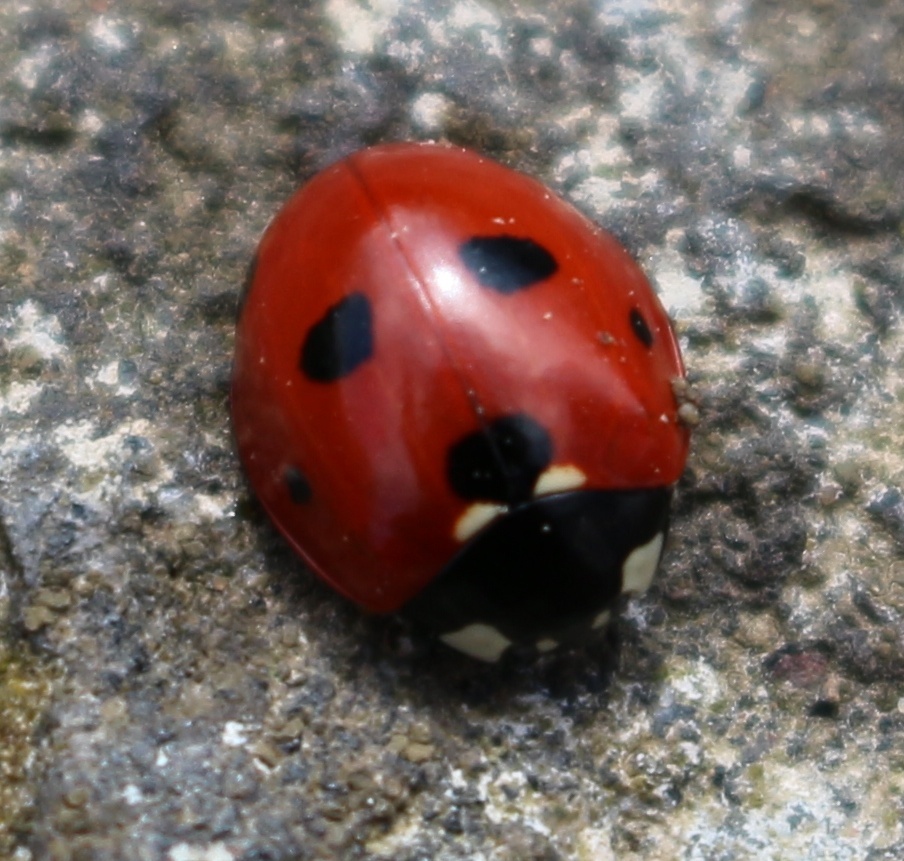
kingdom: Animalia
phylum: Arthropoda
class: Insecta
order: Coleoptera
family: Coccinellidae
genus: Coccinella
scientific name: Coccinella septempunctata
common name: Sevenspotted lady beetle
